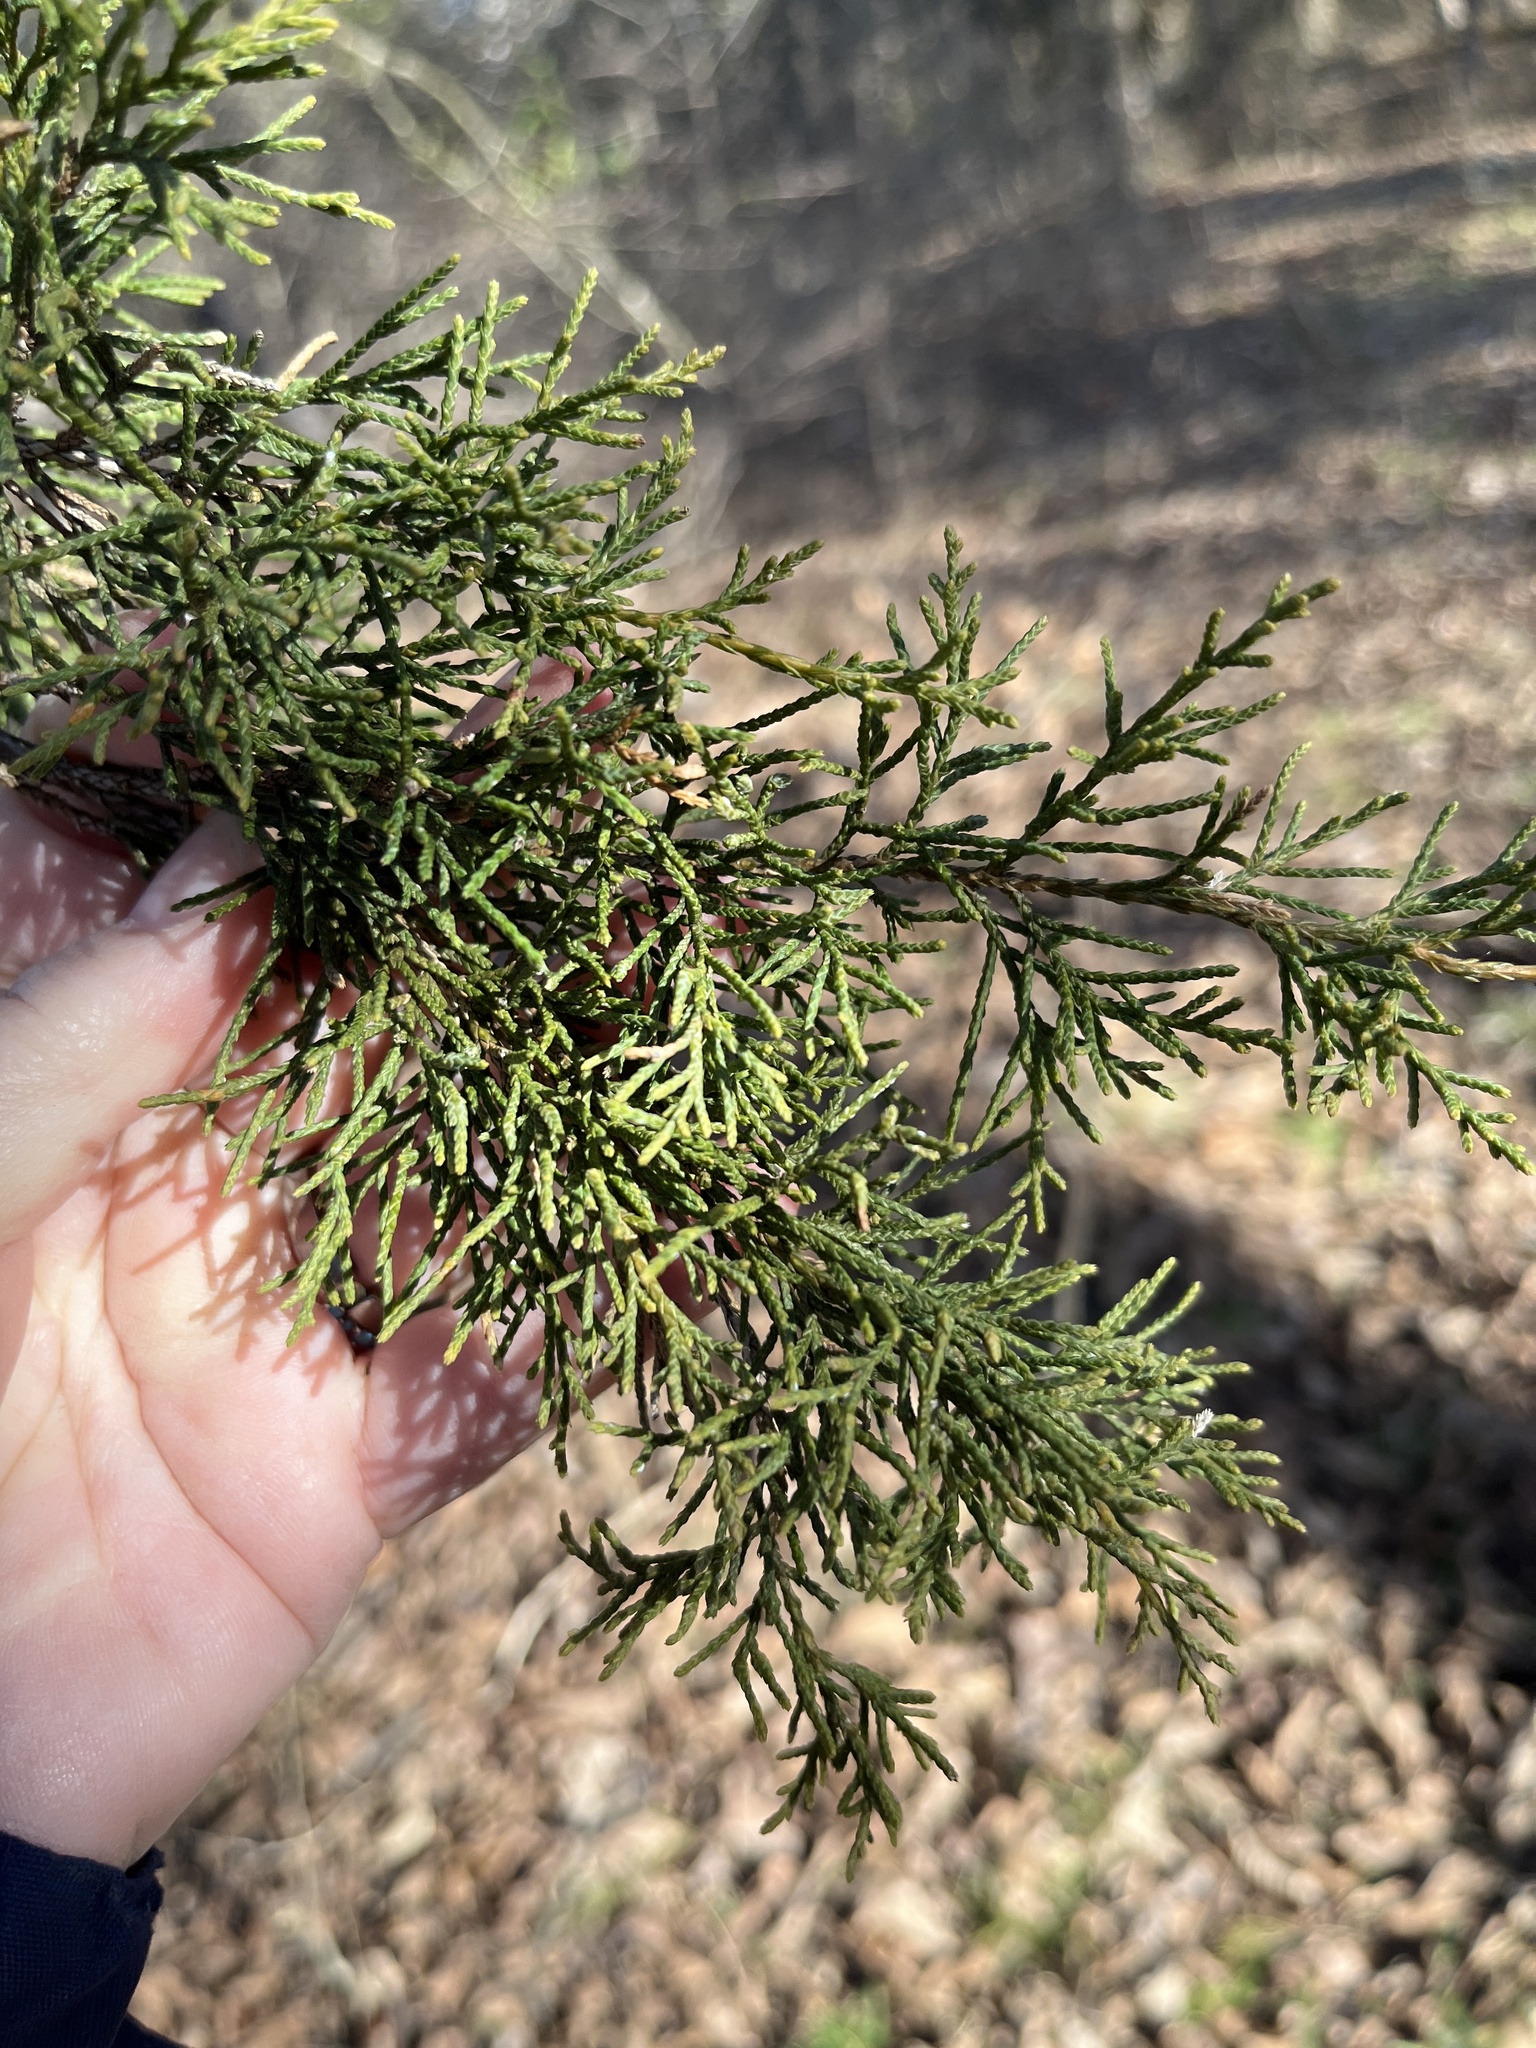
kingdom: Plantae
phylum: Tracheophyta
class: Pinopsida
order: Pinales
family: Cupressaceae
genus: Juniperus
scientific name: Juniperus virginiana
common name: Red juniper
